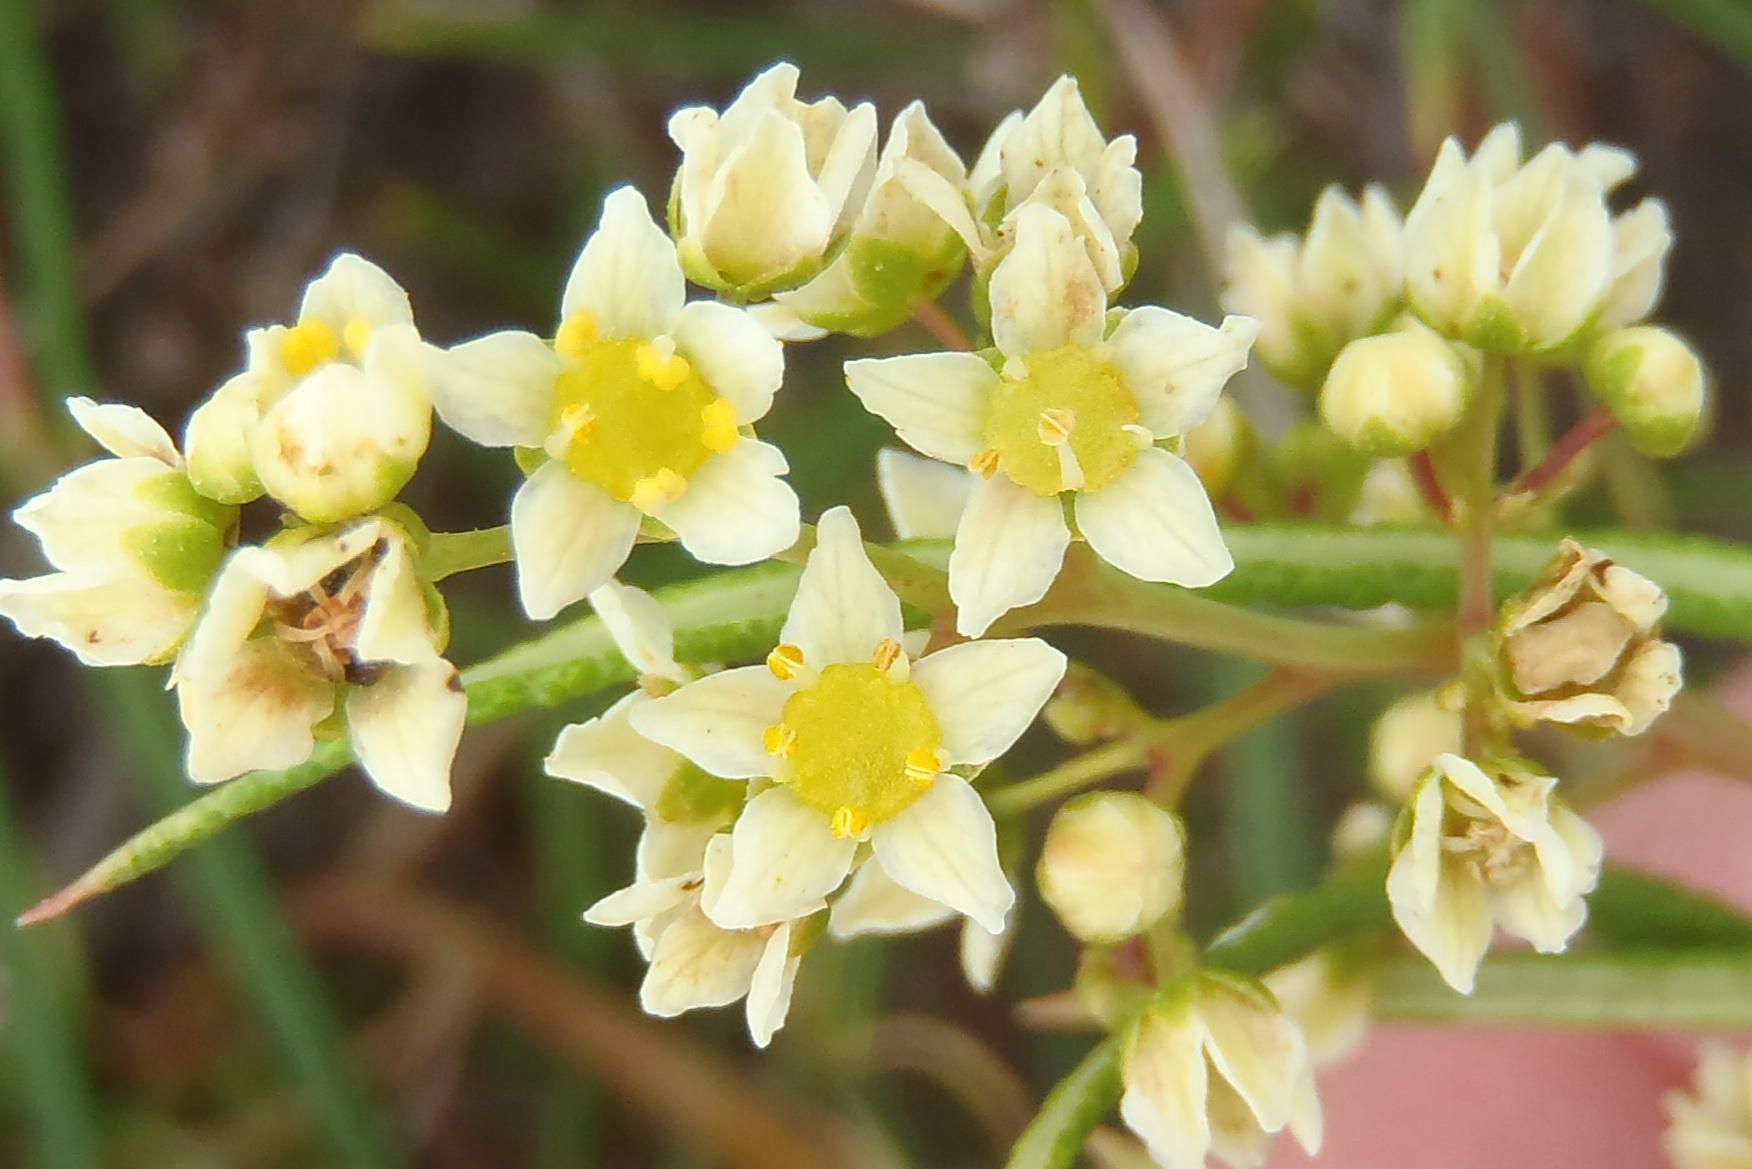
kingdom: Plantae
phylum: Tracheophyta
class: Magnoliopsida
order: Sapindales
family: Anacardiaceae
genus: Searsia
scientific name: Searsia rosmarinifolia
